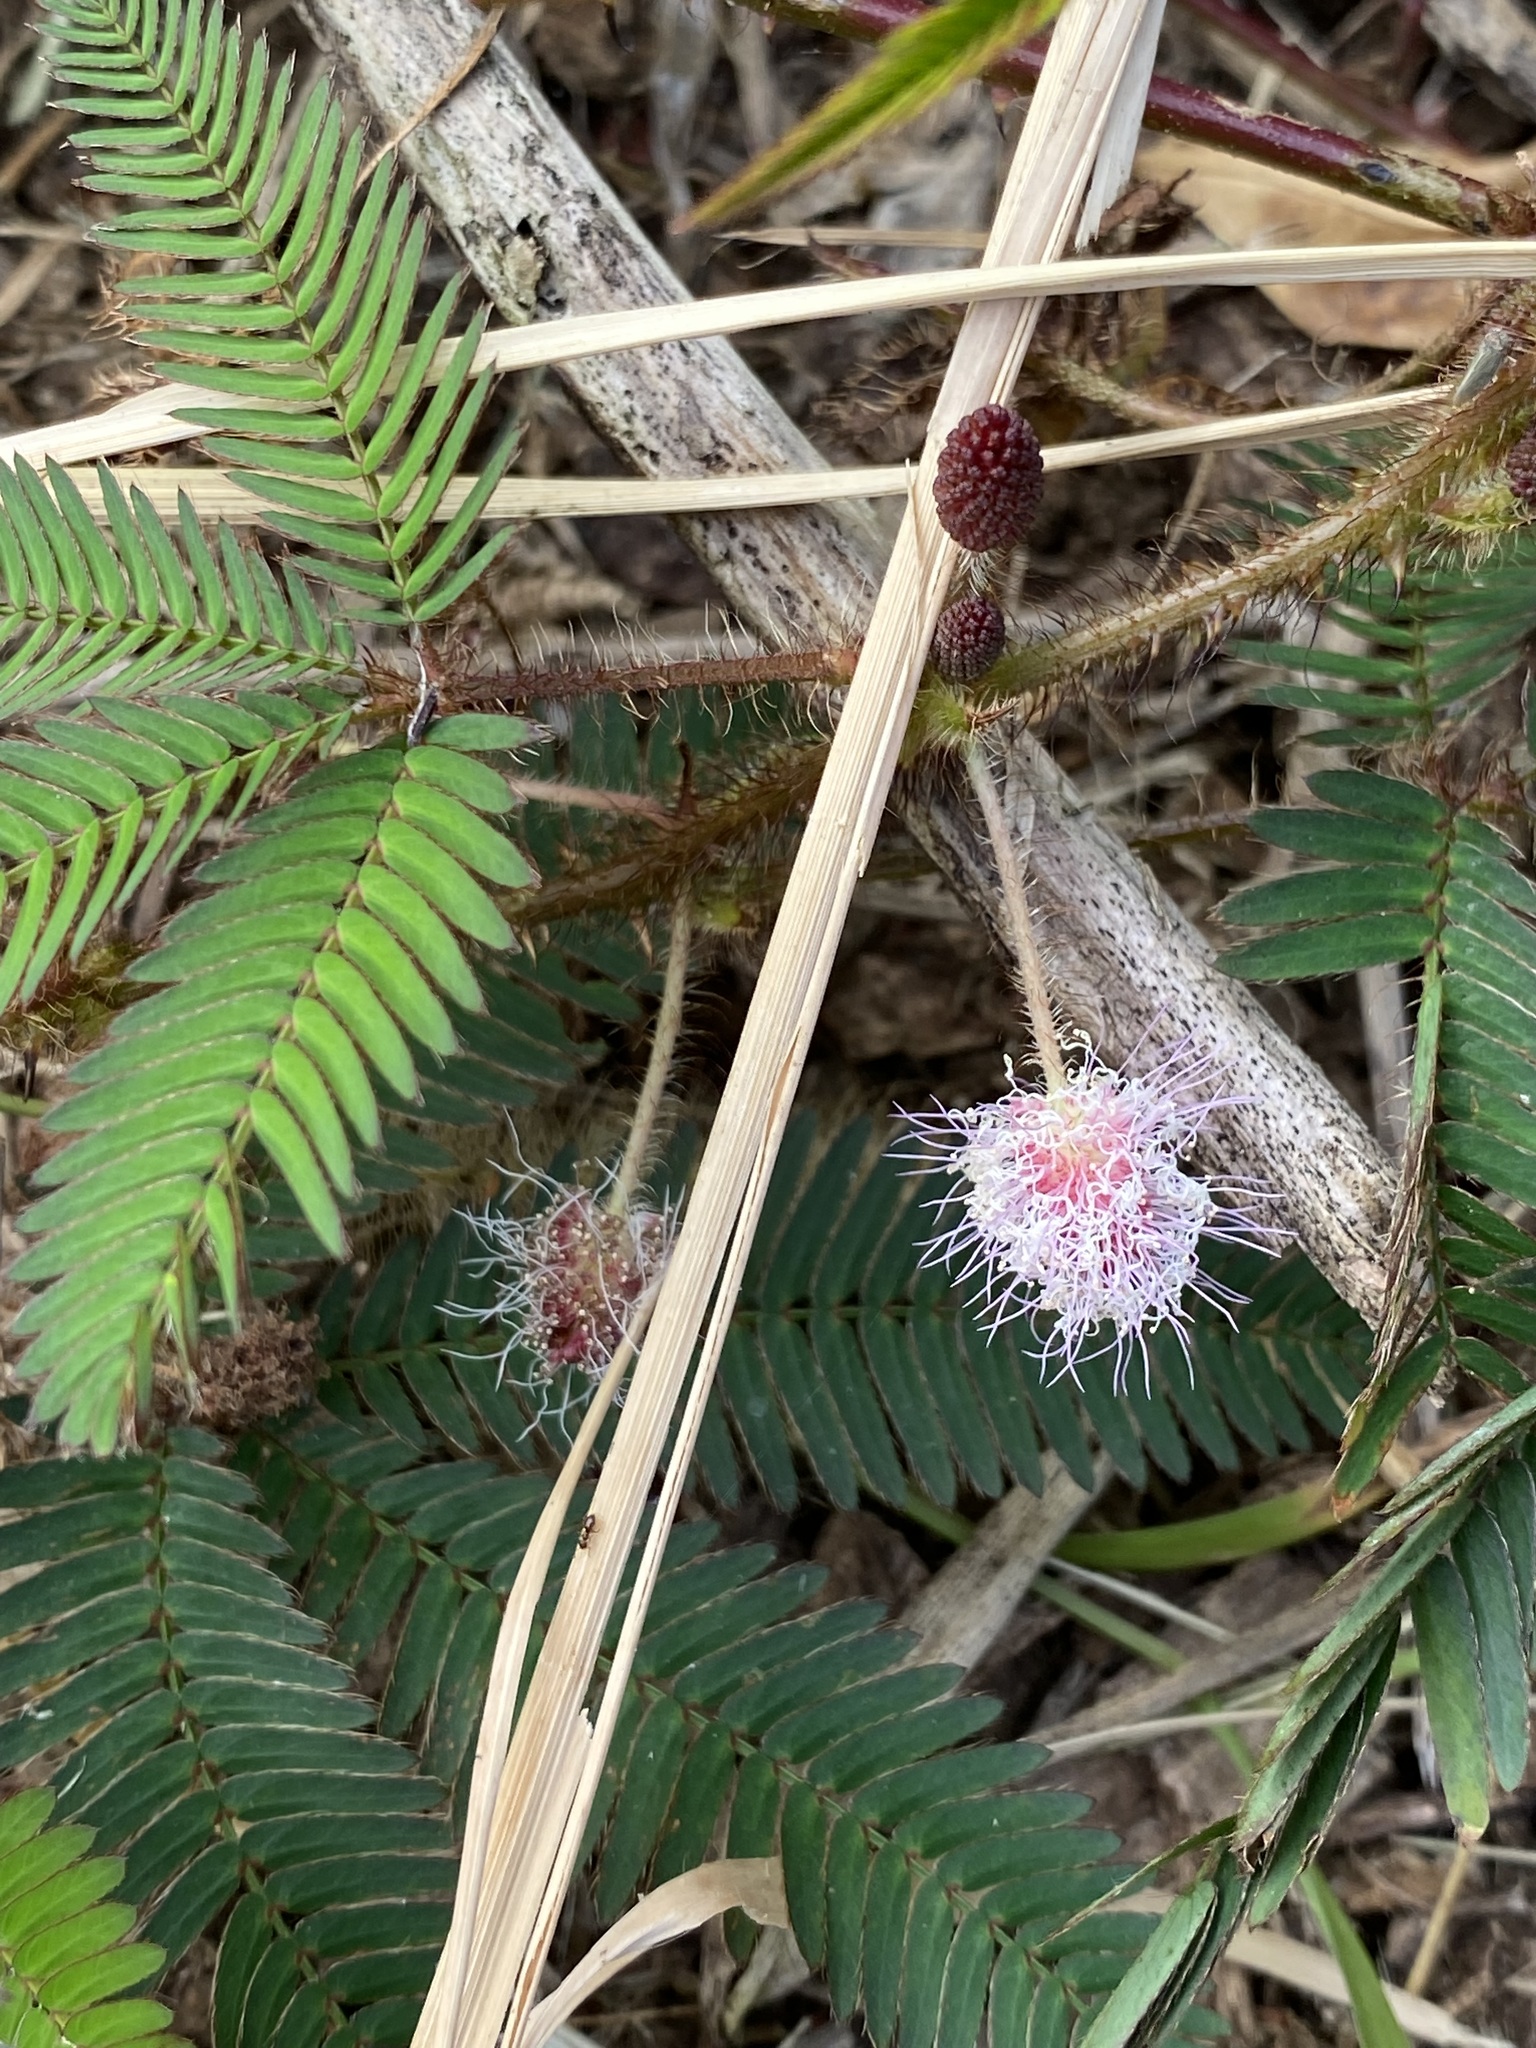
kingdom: Plantae
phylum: Tracheophyta
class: Magnoliopsida
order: Fabales
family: Fabaceae
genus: Mimosa
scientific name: Mimosa pudica
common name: Sensitive plant
